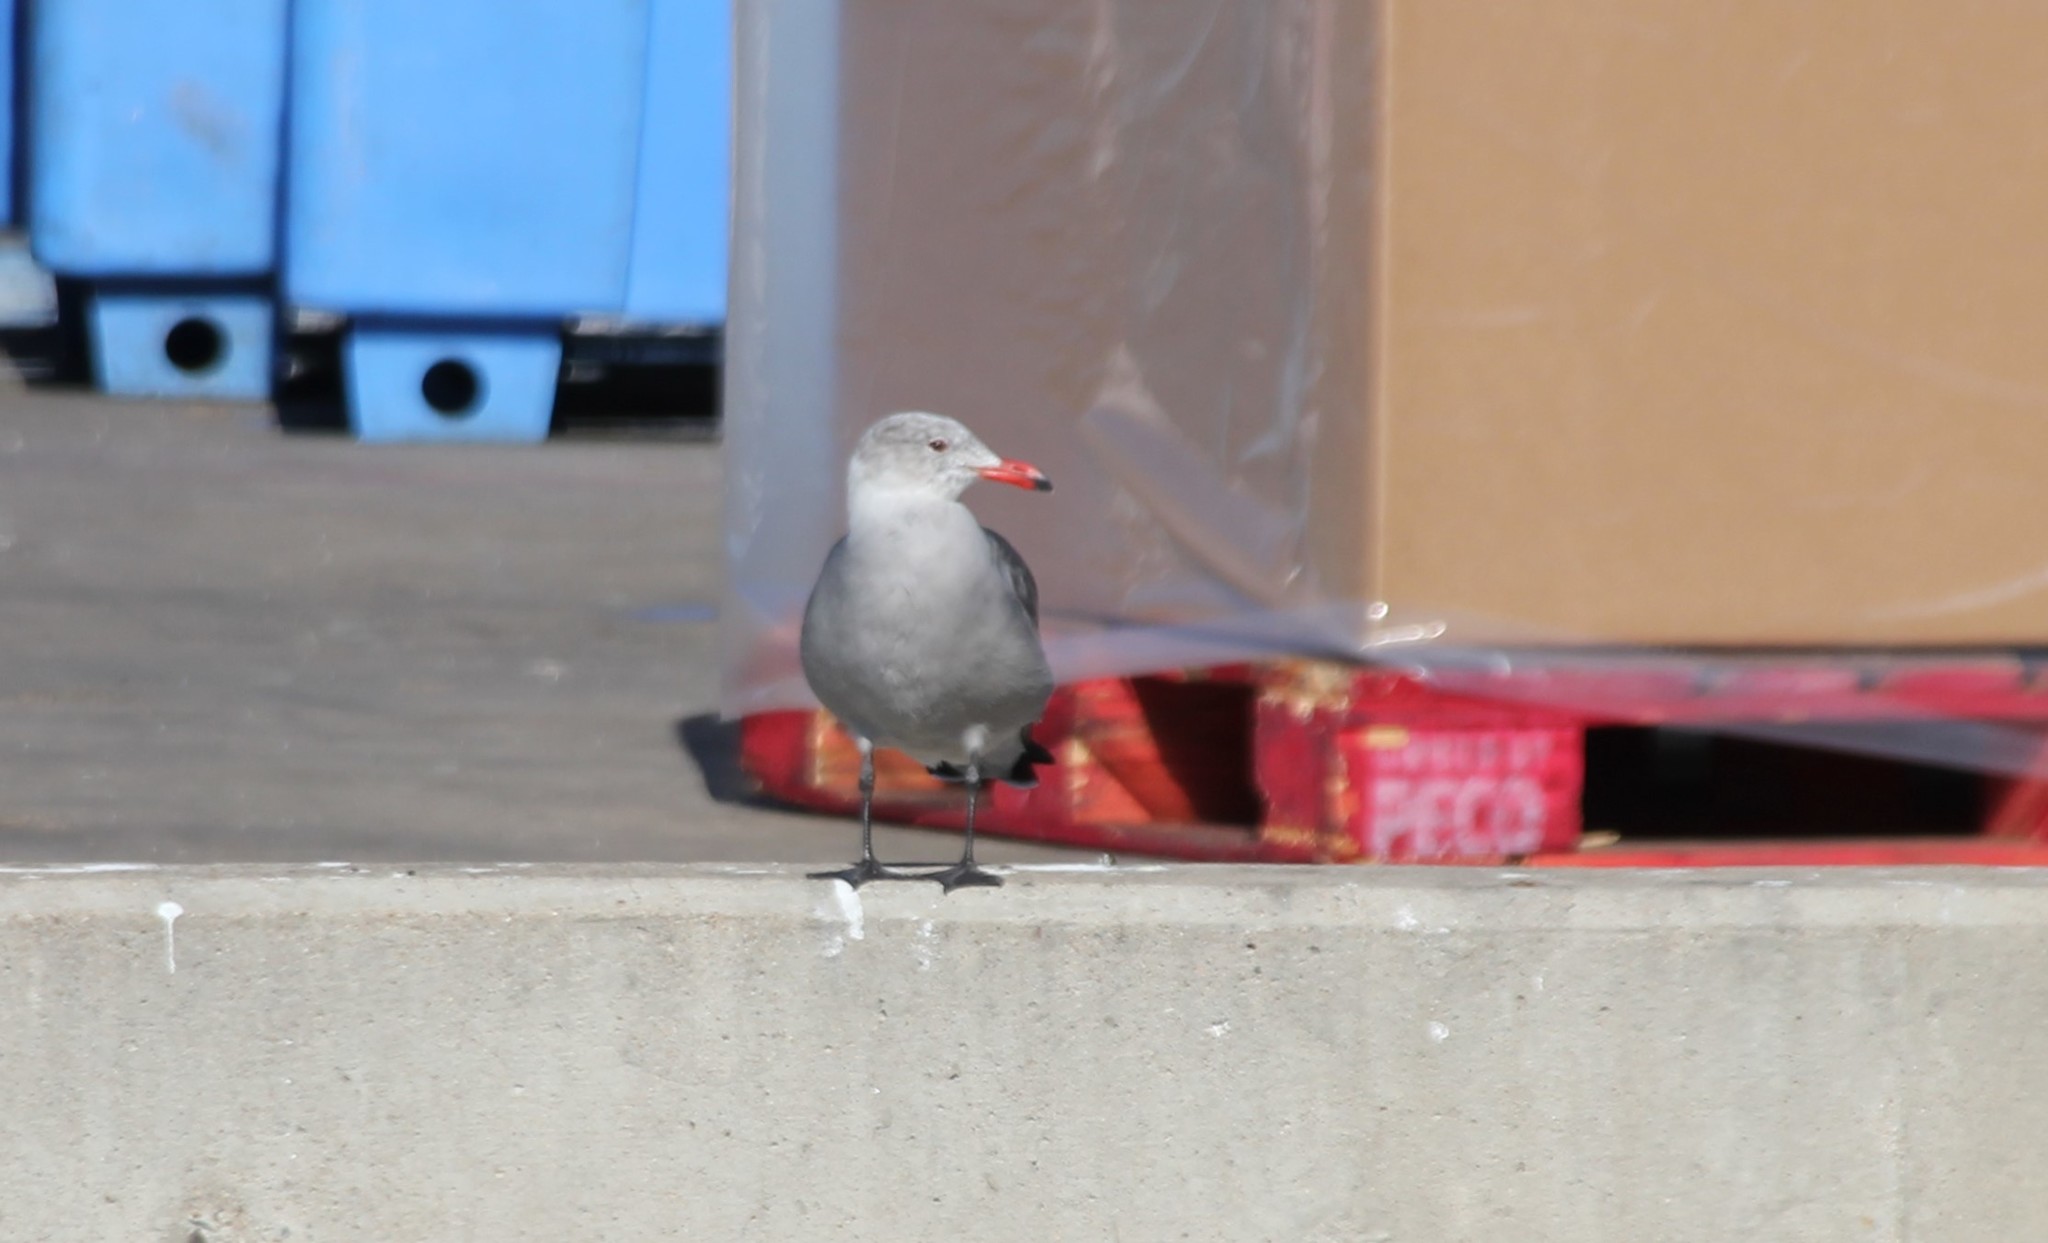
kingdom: Animalia
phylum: Chordata
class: Aves
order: Charadriiformes
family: Laridae
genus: Larus
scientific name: Larus heermanni
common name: Heermann's gull
